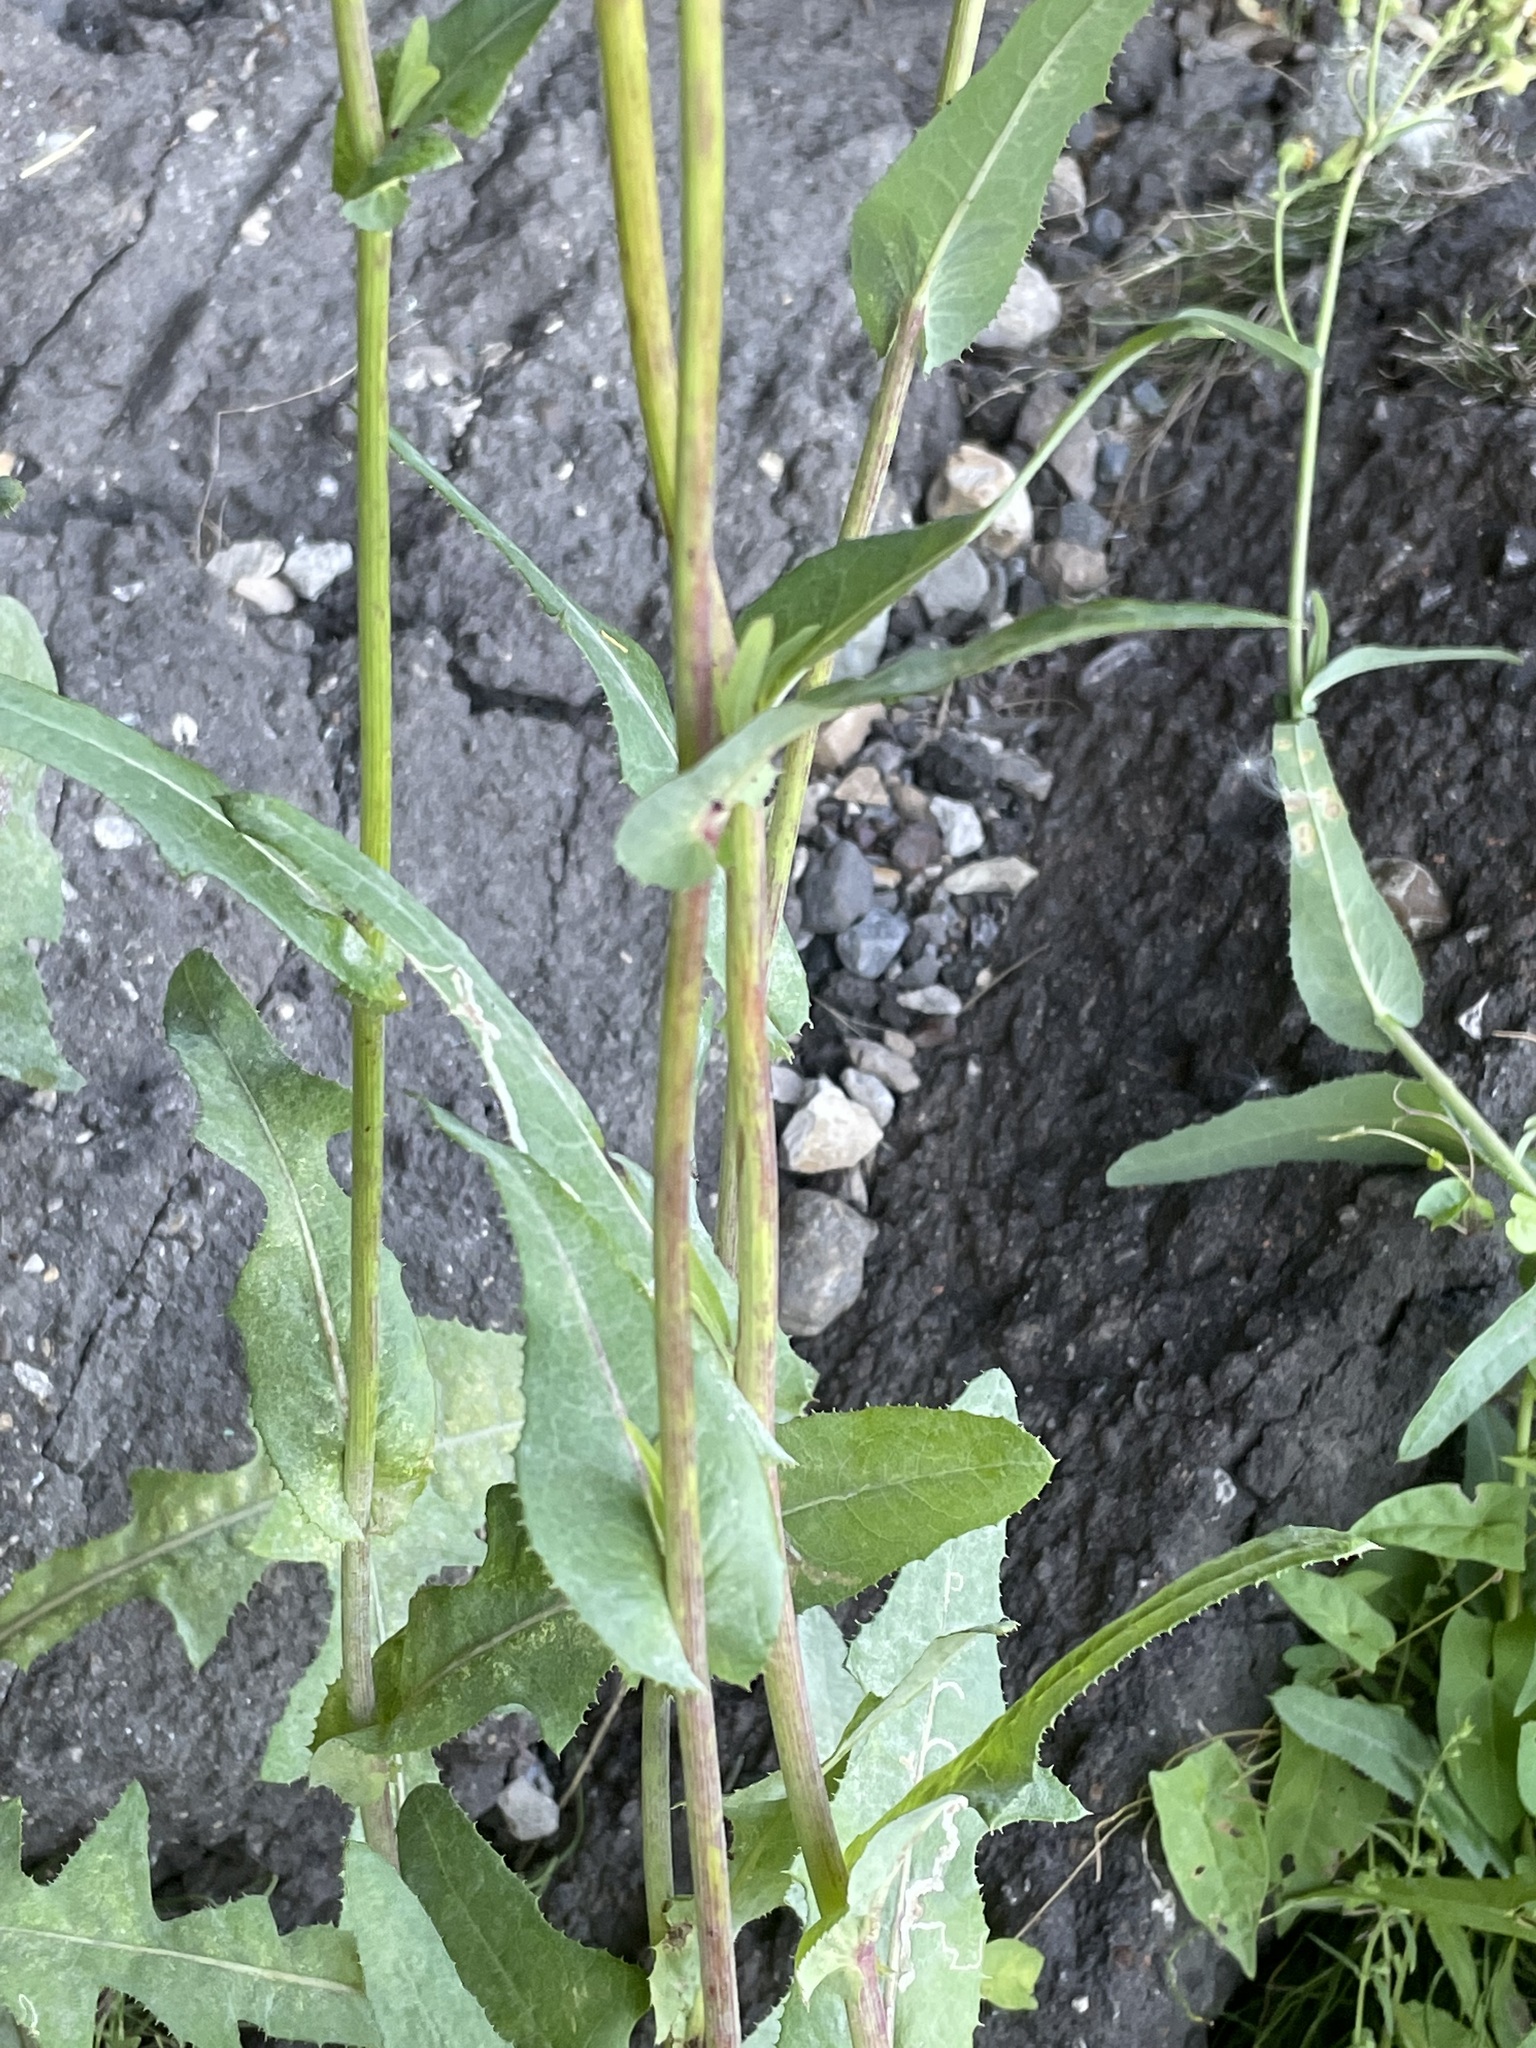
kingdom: Plantae
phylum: Tracheophyta
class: Magnoliopsida
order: Asterales
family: Asteraceae
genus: Sonchus
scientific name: Sonchus arvensis
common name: Perennial sow-thistle
